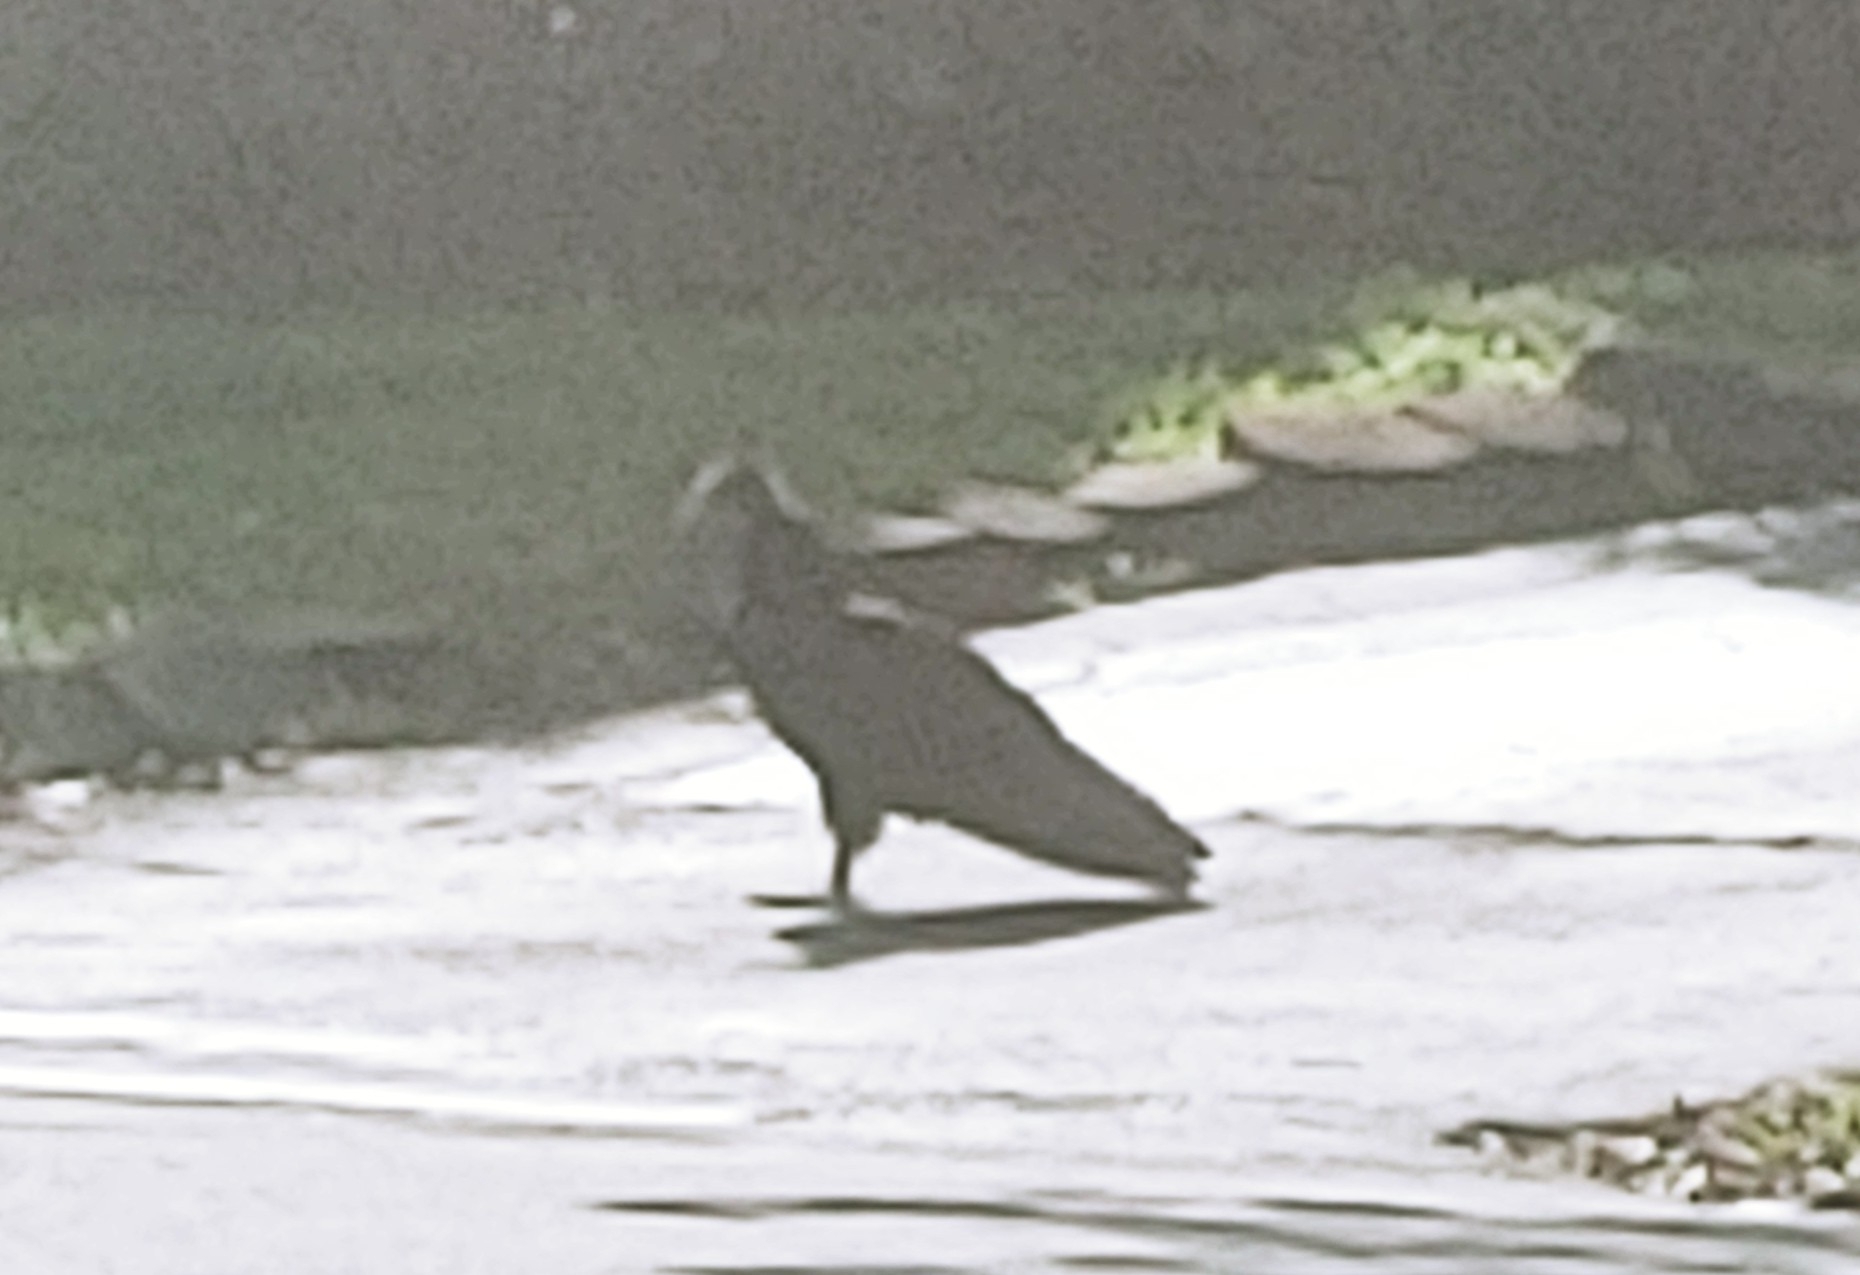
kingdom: Animalia
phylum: Chordata
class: Aves
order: Accipitriformes
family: Cathartidae
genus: Cathartes
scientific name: Cathartes aura
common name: Turkey vulture
